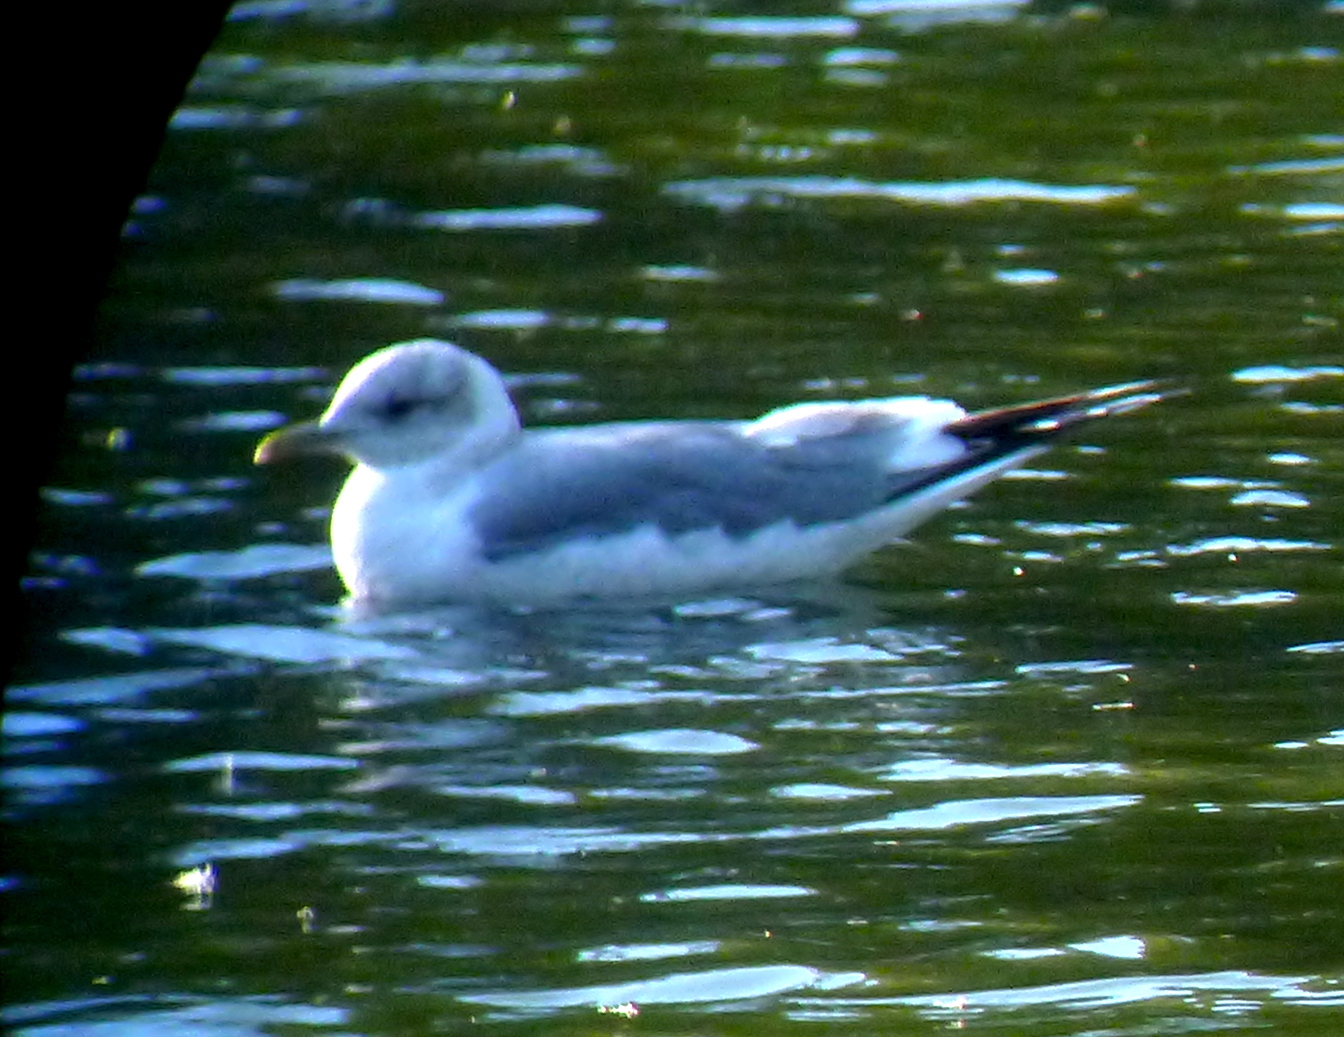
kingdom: Animalia
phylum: Chordata
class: Aves
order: Charadriiformes
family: Laridae
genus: Larus
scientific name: Larus brachyrhynchus
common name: Short-billed gull
